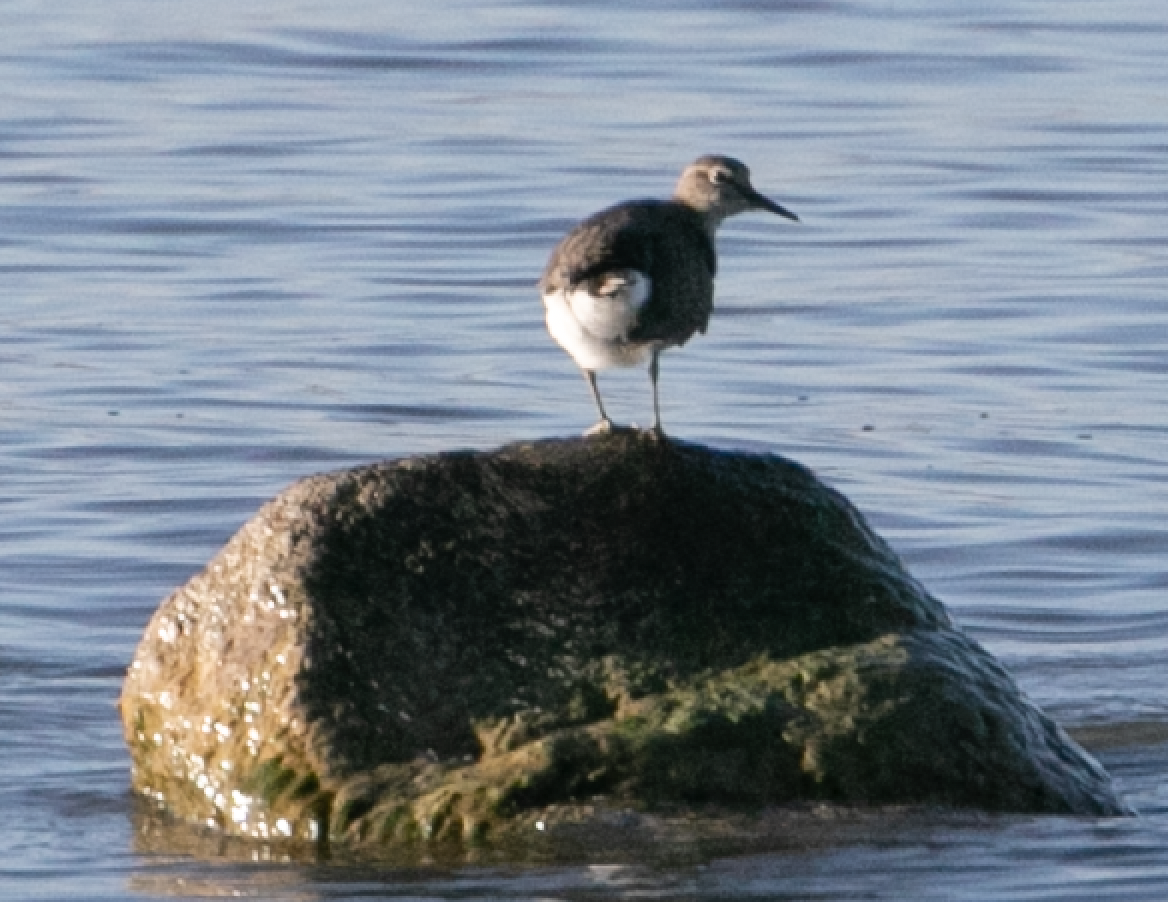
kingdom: Animalia
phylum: Chordata
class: Aves
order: Charadriiformes
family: Scolopacidae
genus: Actitis
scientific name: Actitis hypoleucos
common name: Common sandpiper
